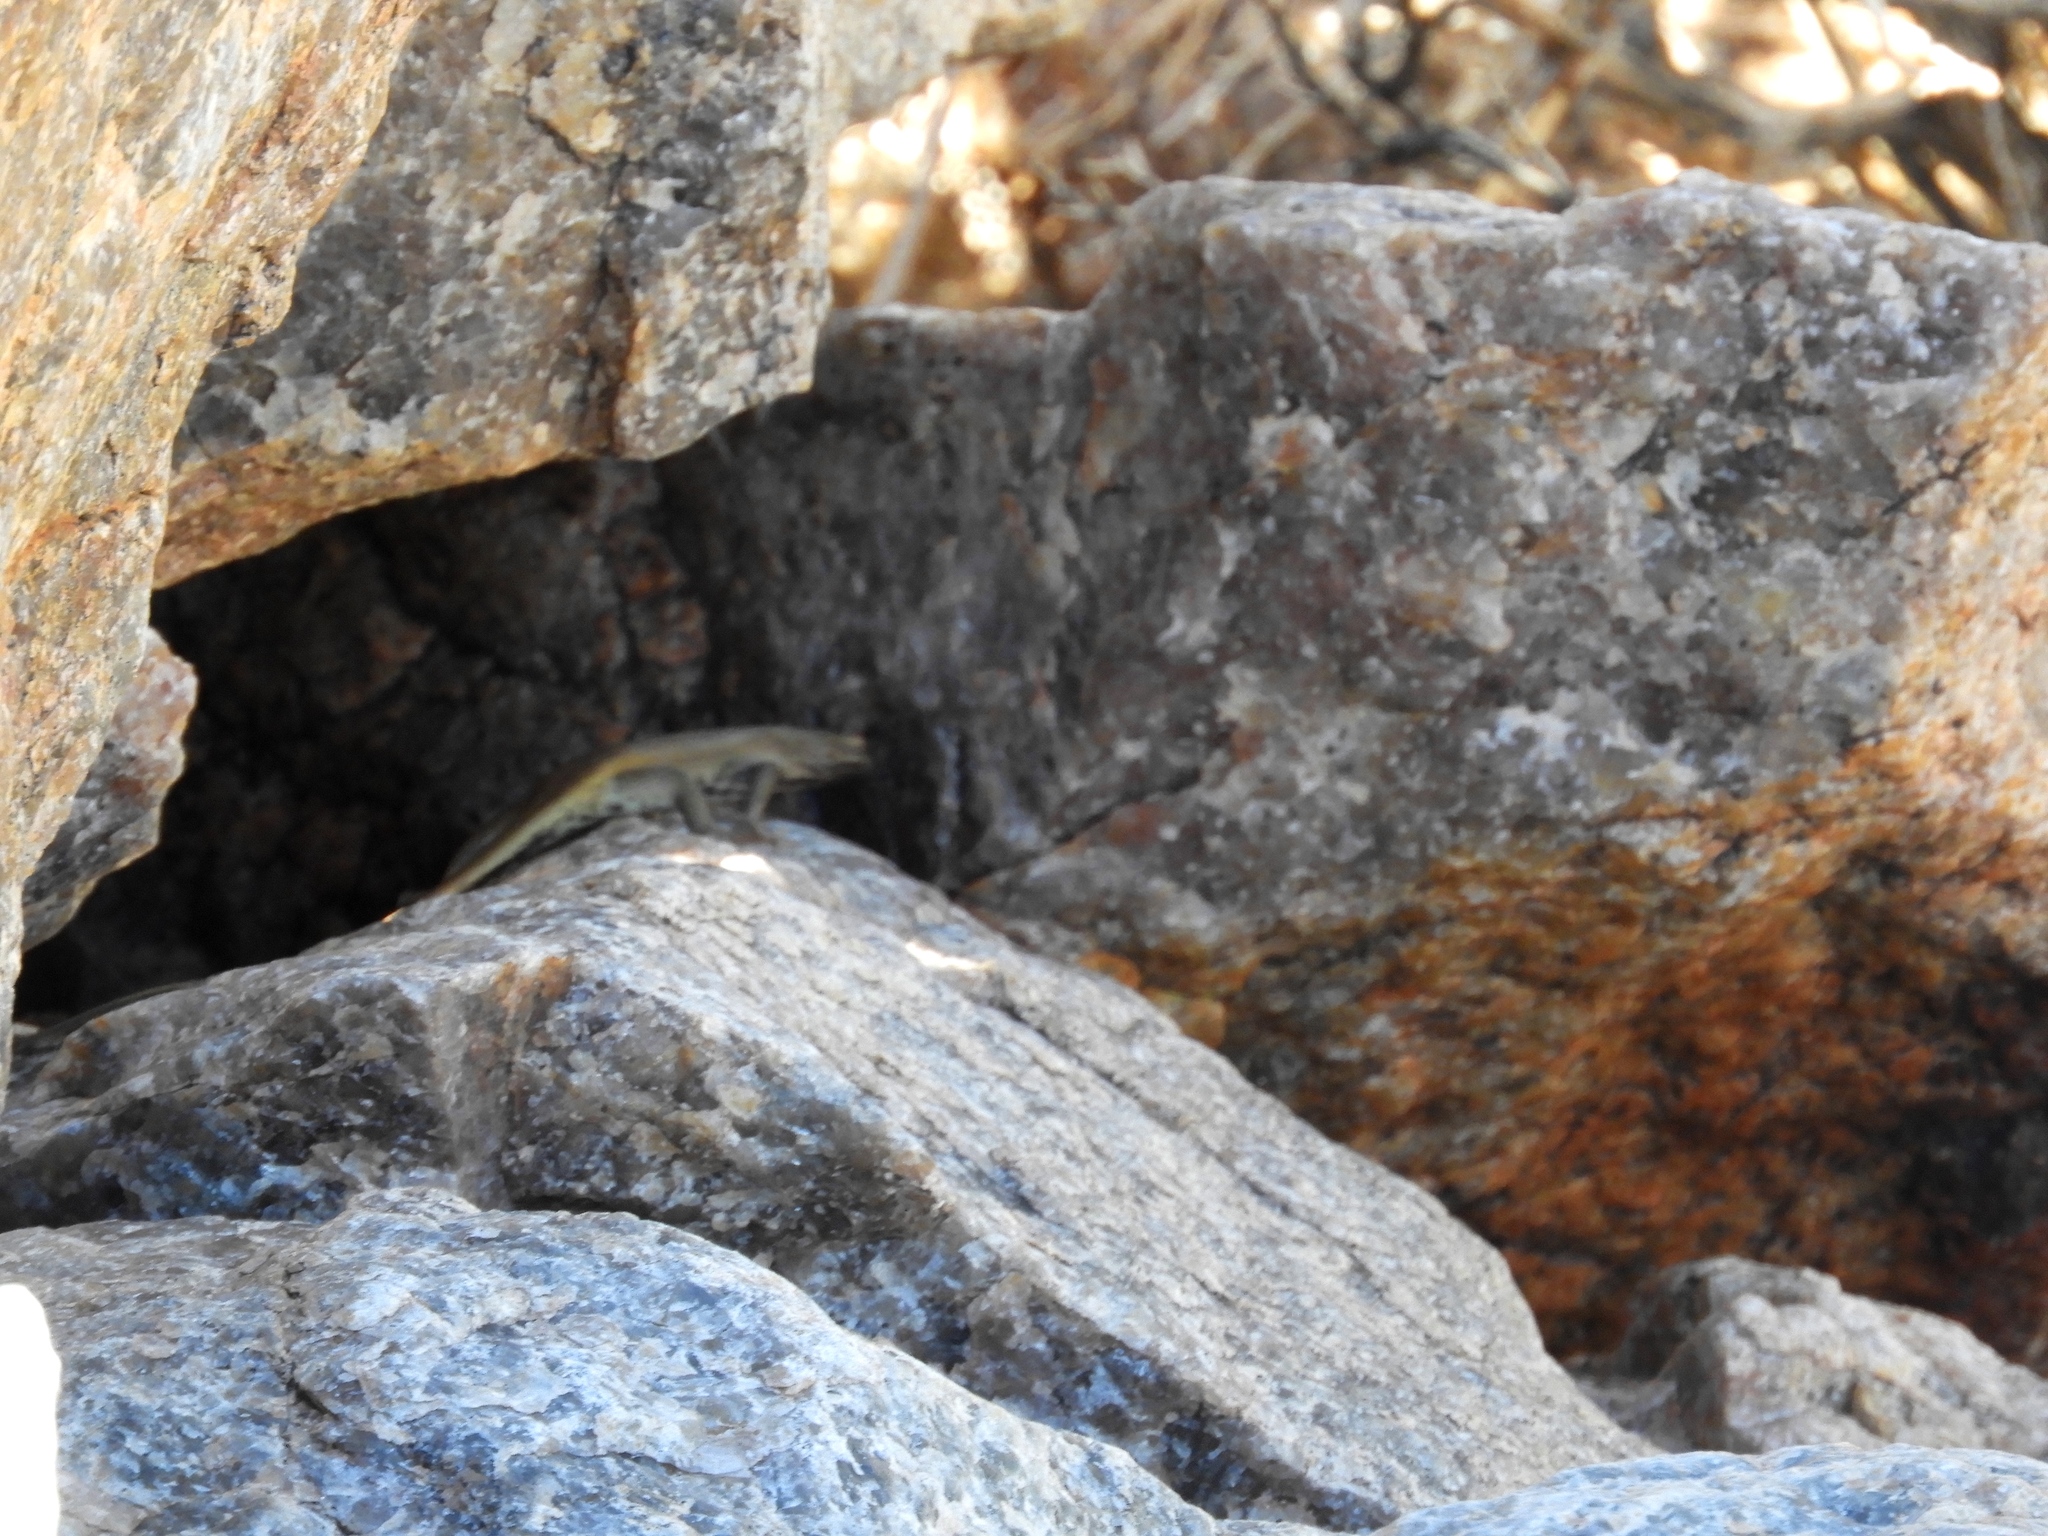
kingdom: Animalia
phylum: Chordata
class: Squamata
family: Scincidae
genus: Trachylepis
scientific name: Trachylepis sulcata
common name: Western rock skink
